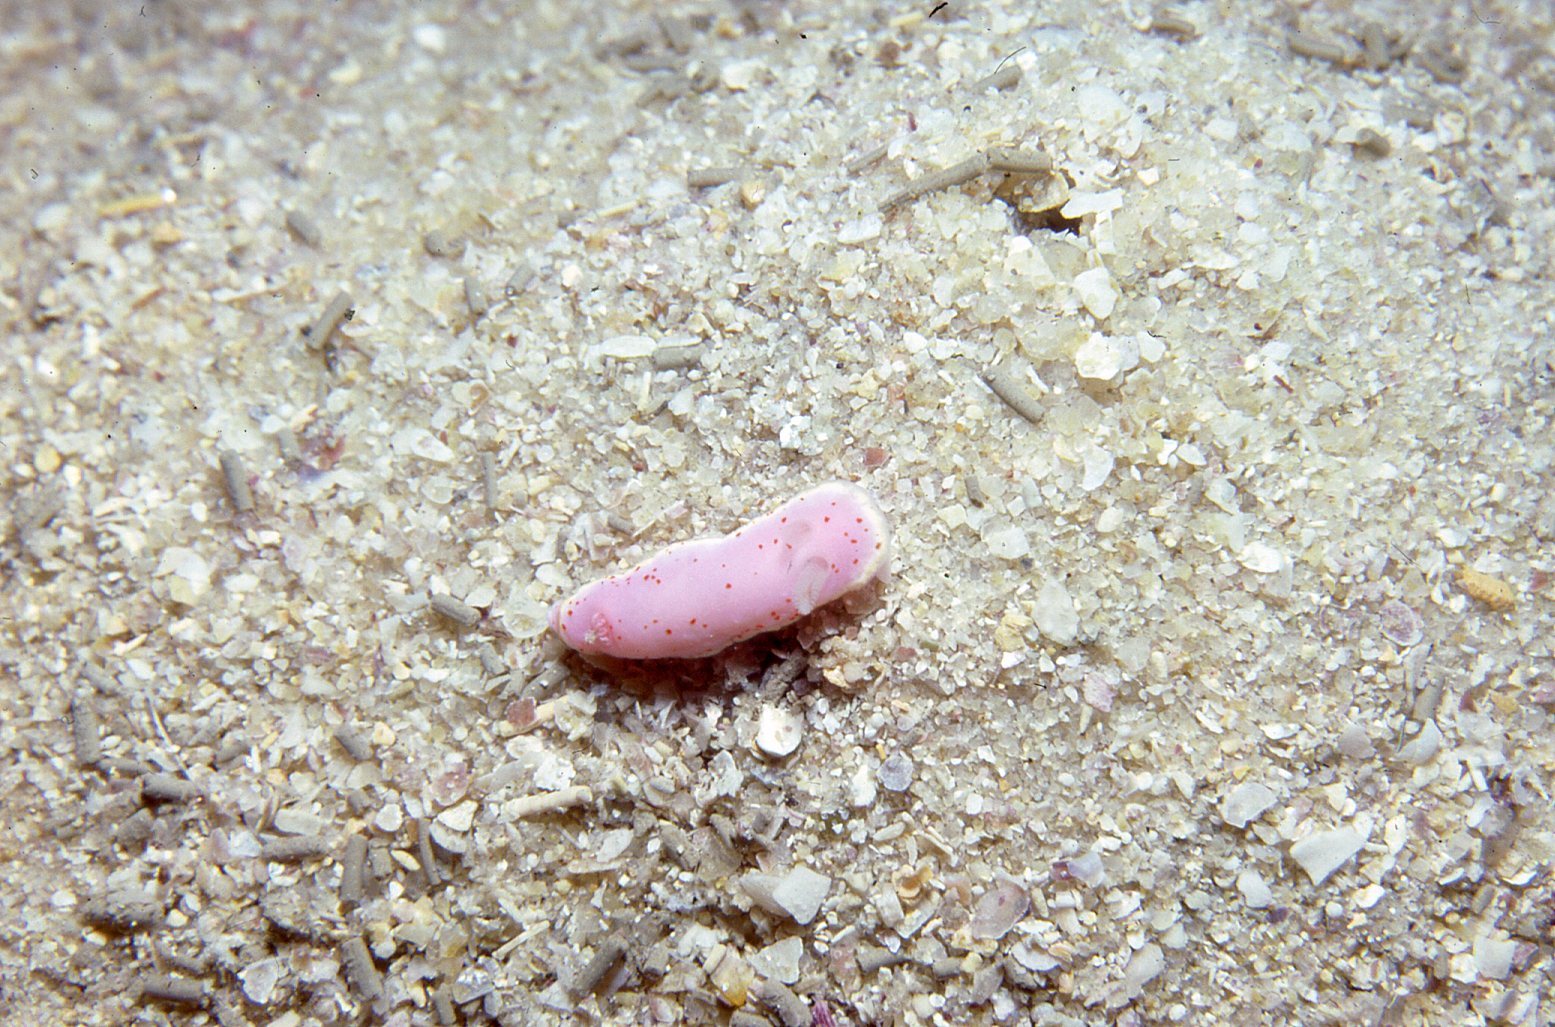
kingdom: Animalia
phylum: Mollusca
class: Gastropoda
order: Nudibranchia
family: Chromodorididae
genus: Verconia
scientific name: Verconia haliclona
